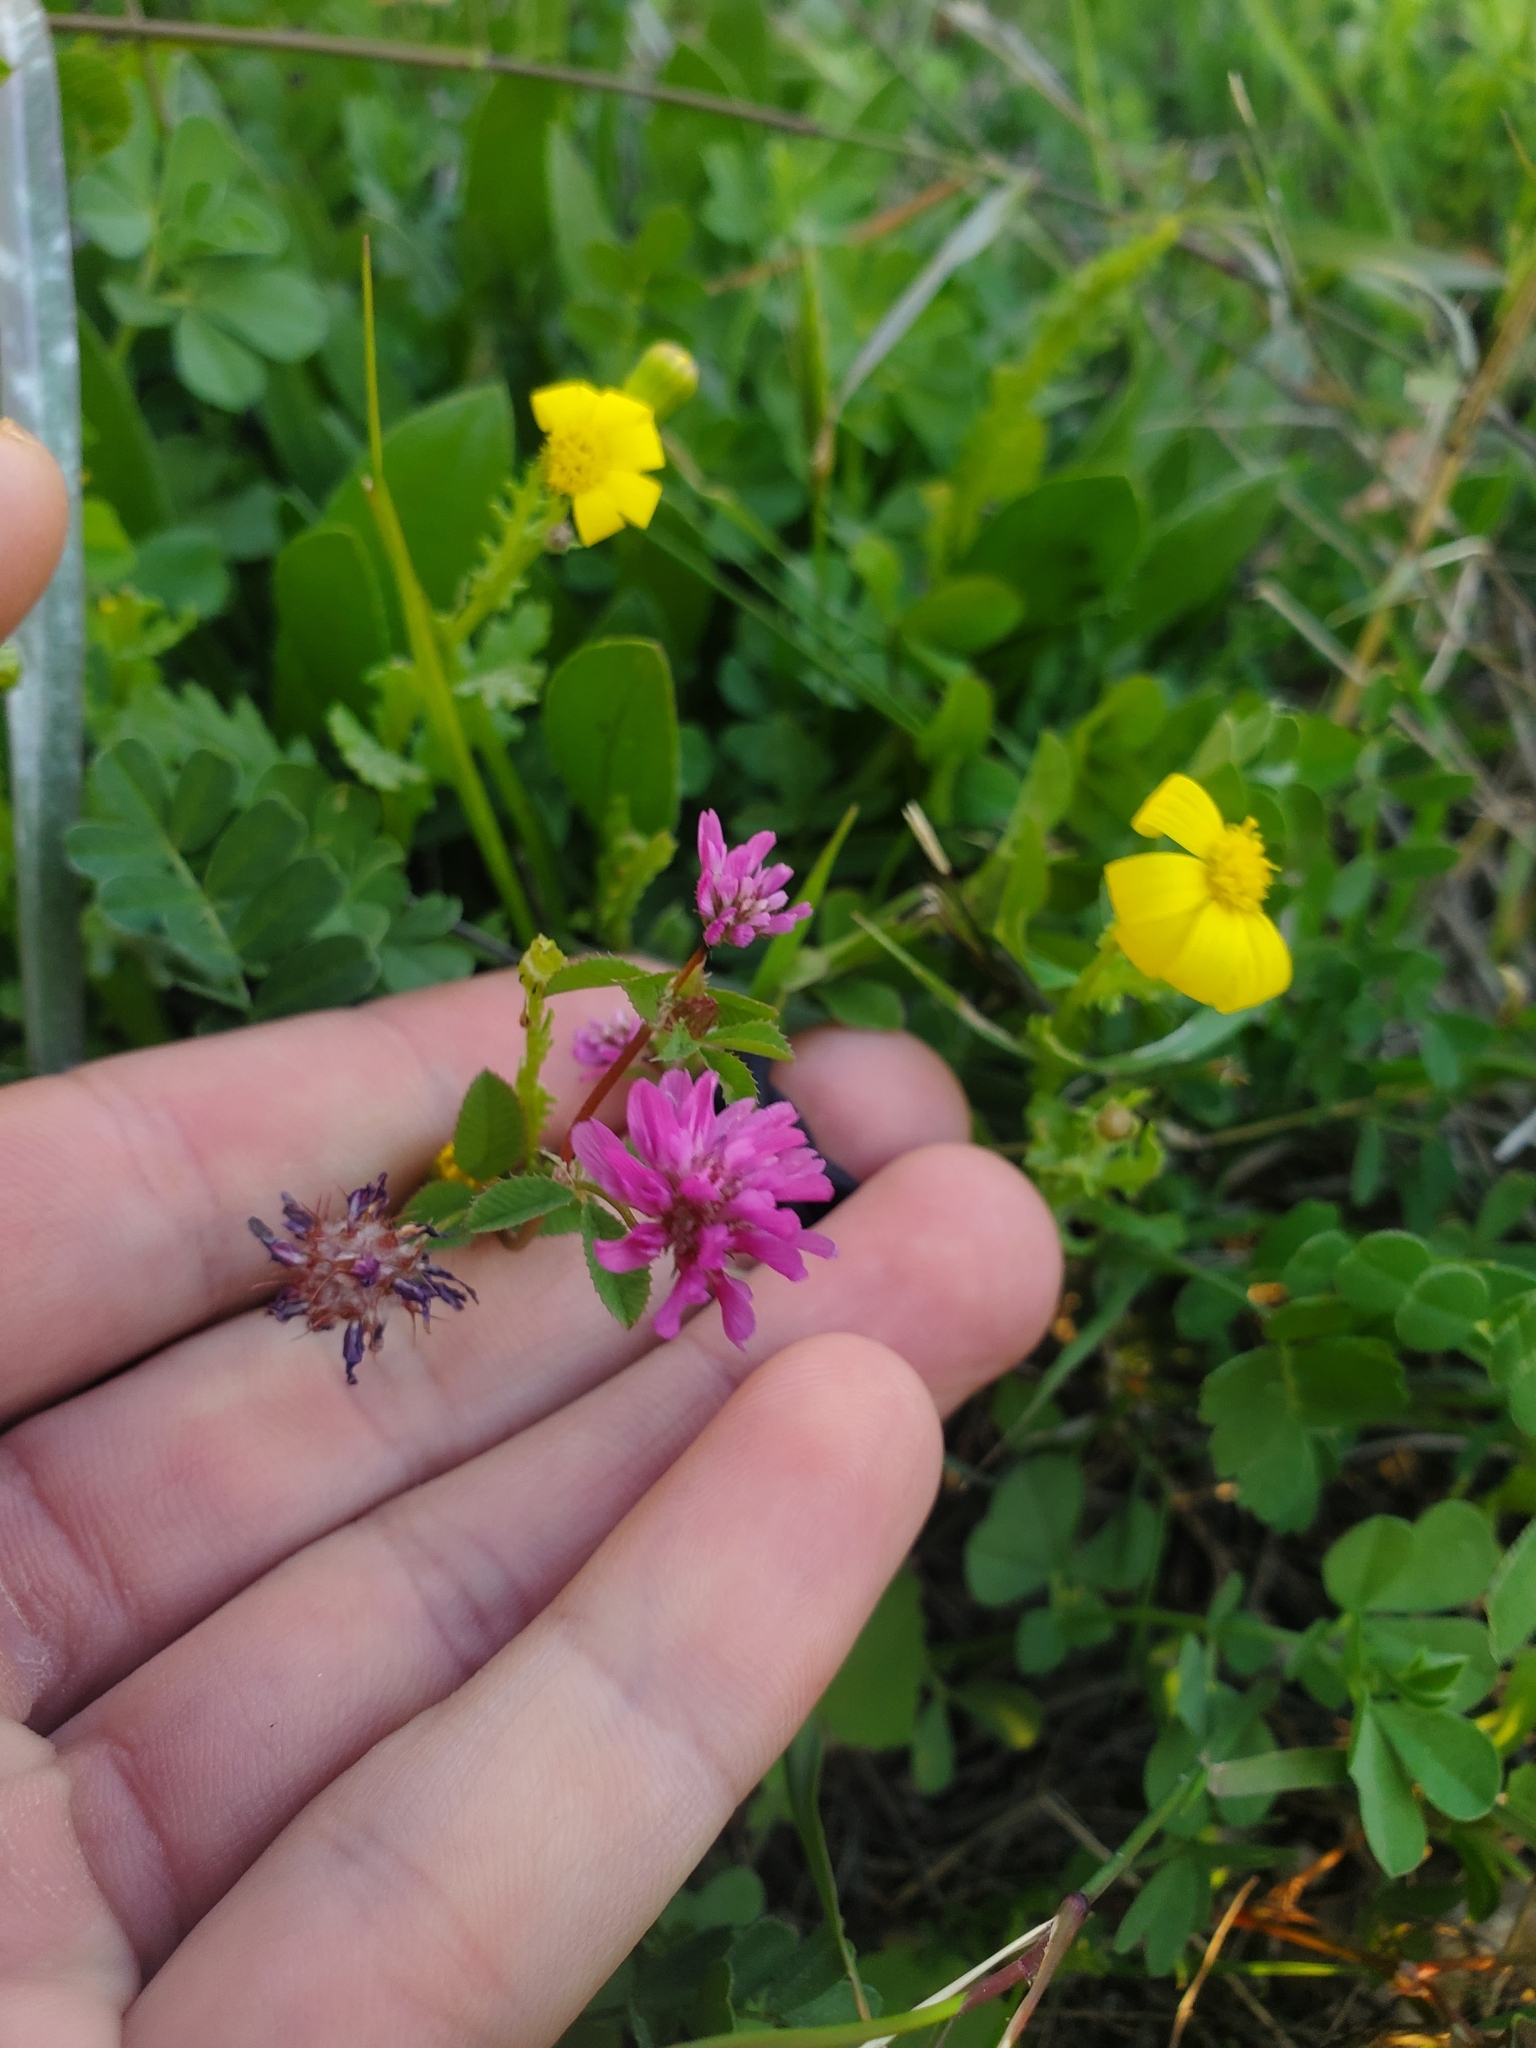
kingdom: Plantae
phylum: Tracheophyta
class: Magnoliopsida
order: Fabales
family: Fabaceae
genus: Trifolium
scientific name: Trifolium resupinatum
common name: Reversed clover
